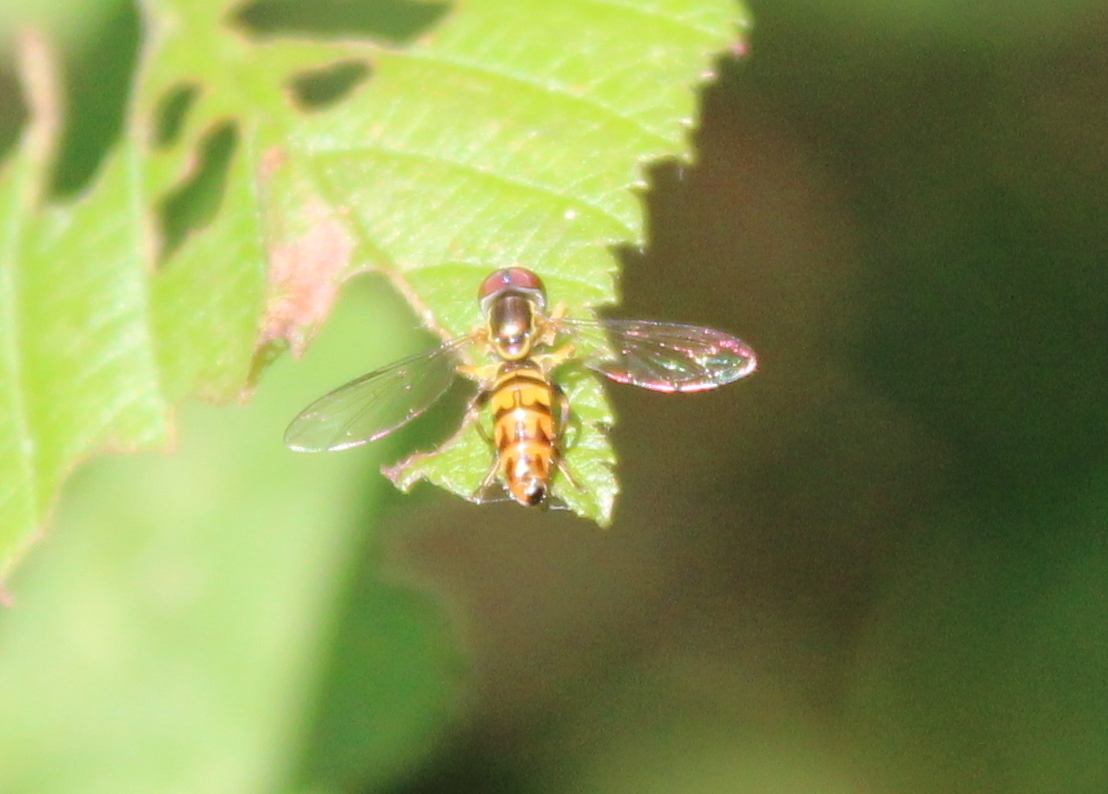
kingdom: Animalia
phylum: Arthropoda
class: Insecta
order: Diptera
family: Syrphidae
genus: Toxomerus
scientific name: Toxomerus geminatus
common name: Eastern calligrapher
